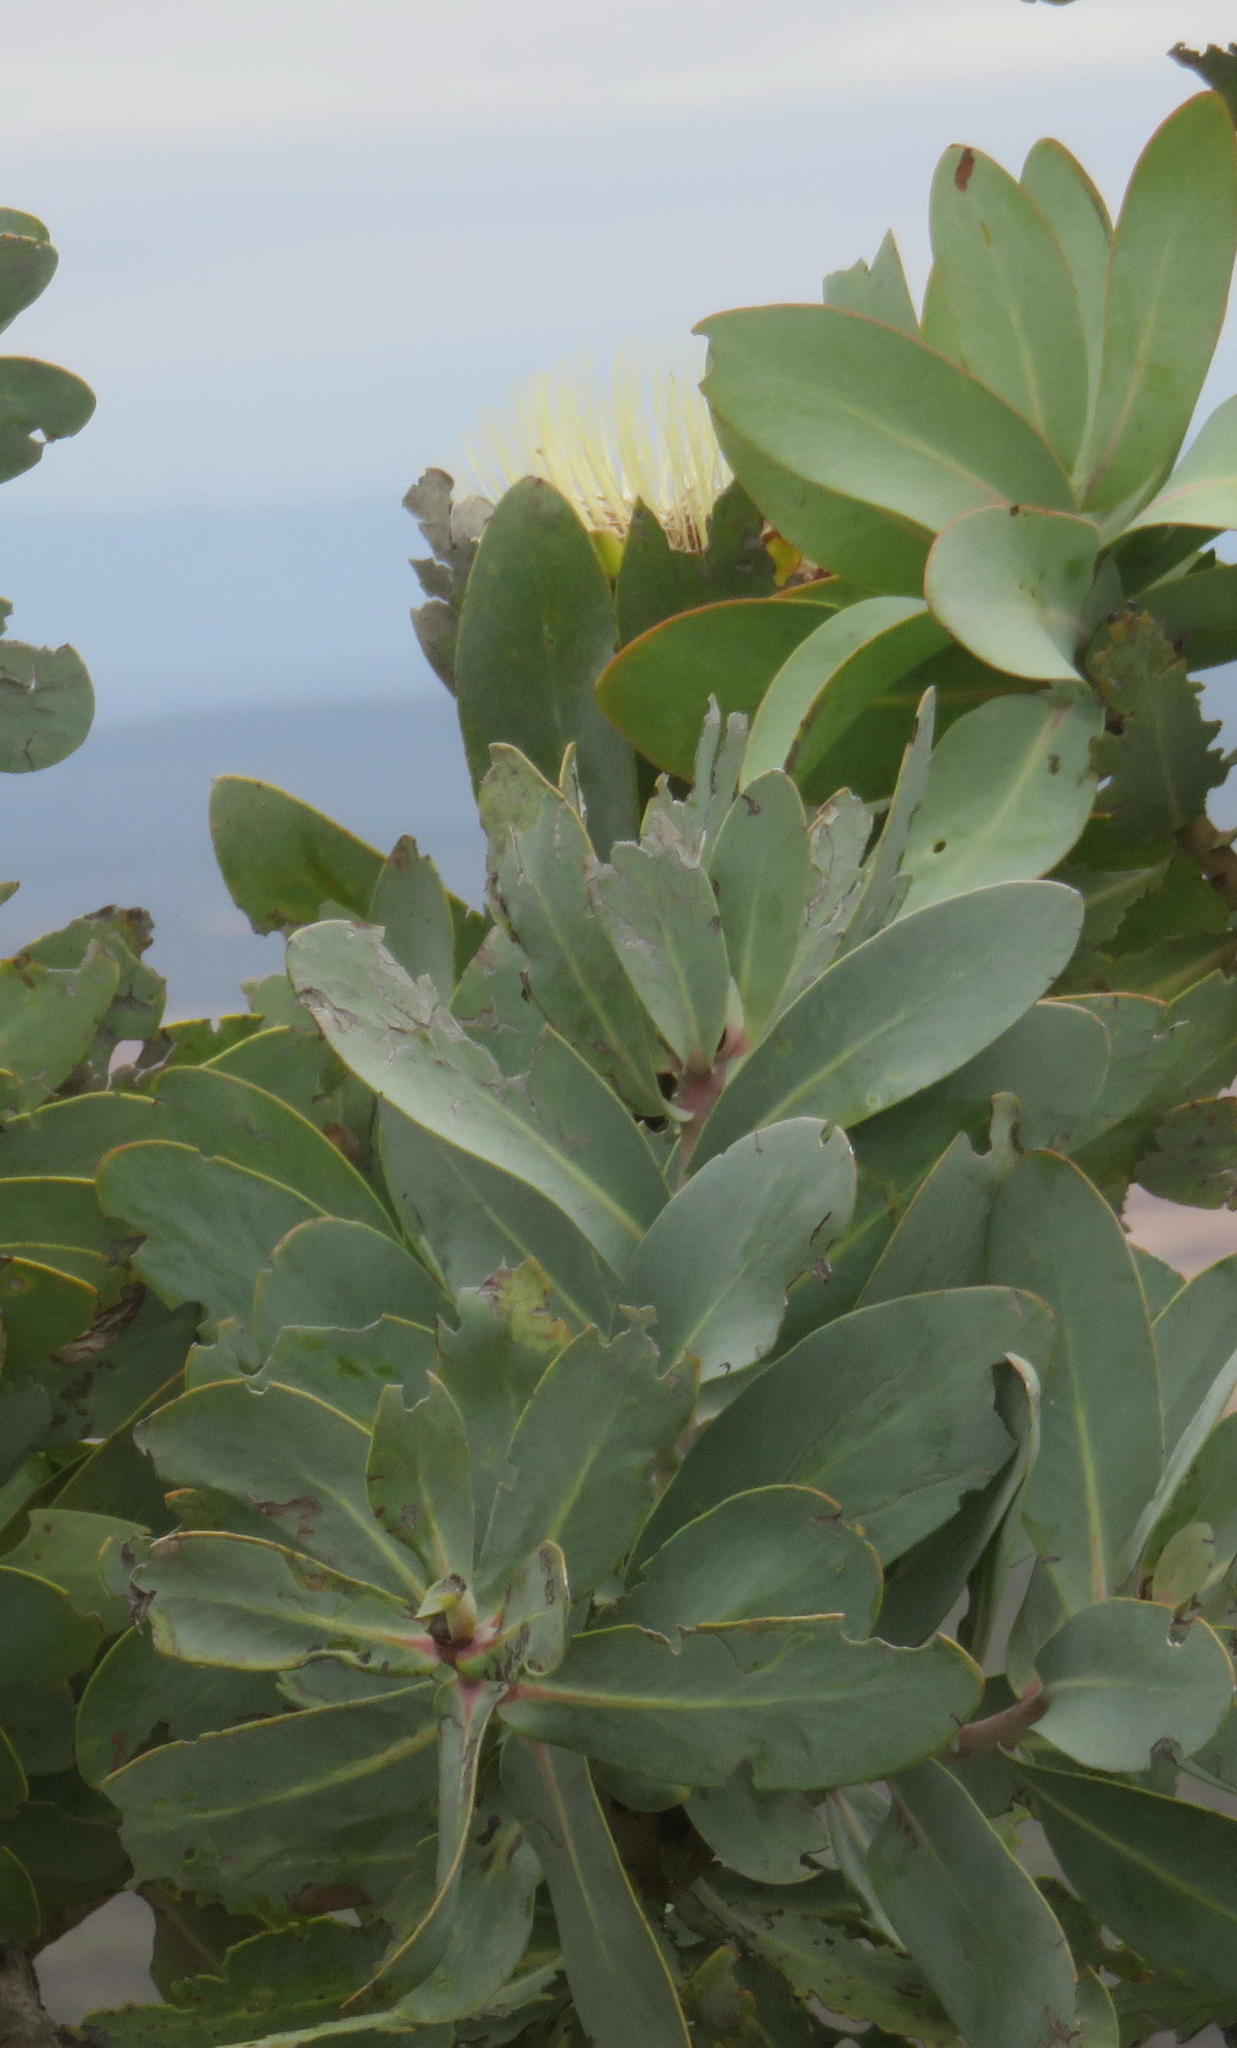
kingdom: Plantae
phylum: Tracheophyta
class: Magnoliopsida
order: Proteales
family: Proteaceae
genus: Protea
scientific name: Protea nitida
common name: Tree protea
